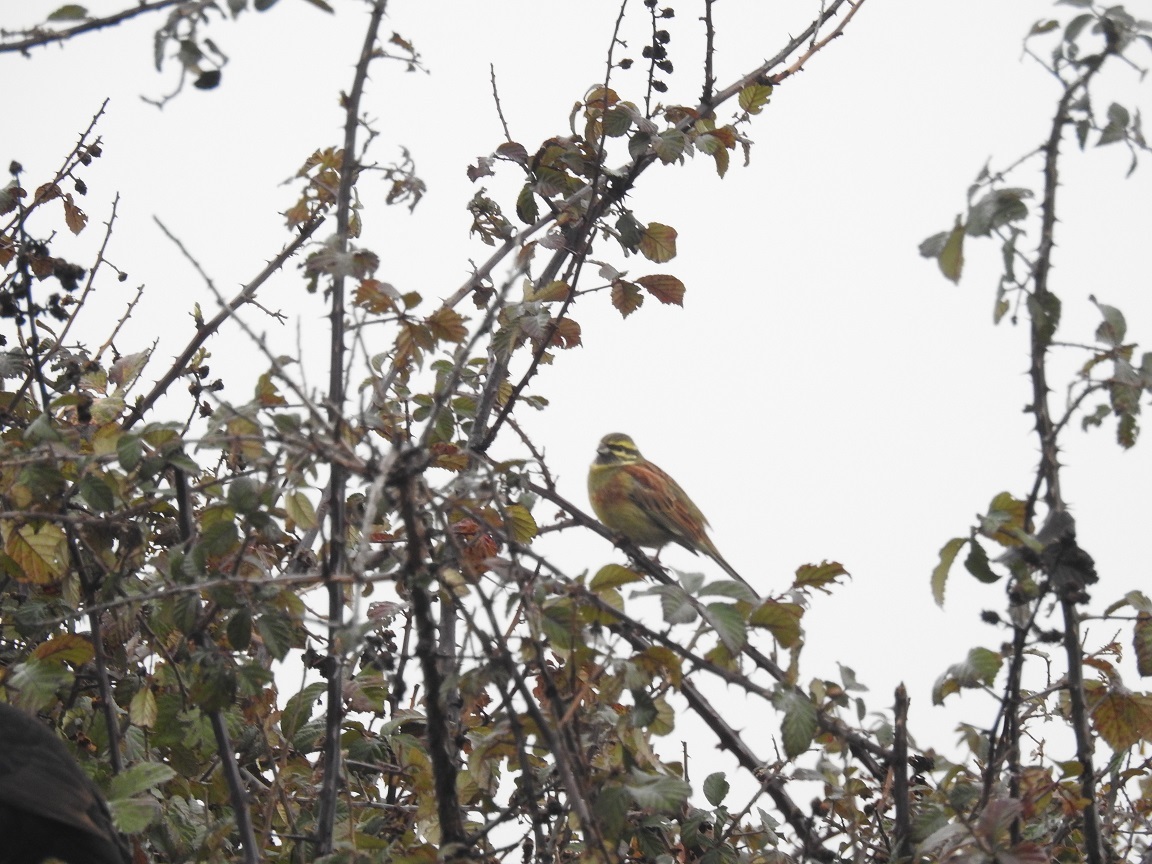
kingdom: Animalia
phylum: Chordata
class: Aves
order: Passeriformes
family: Emberizidae
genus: Emberiza
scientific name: Emberiza cirlus
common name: Cirl bunting
